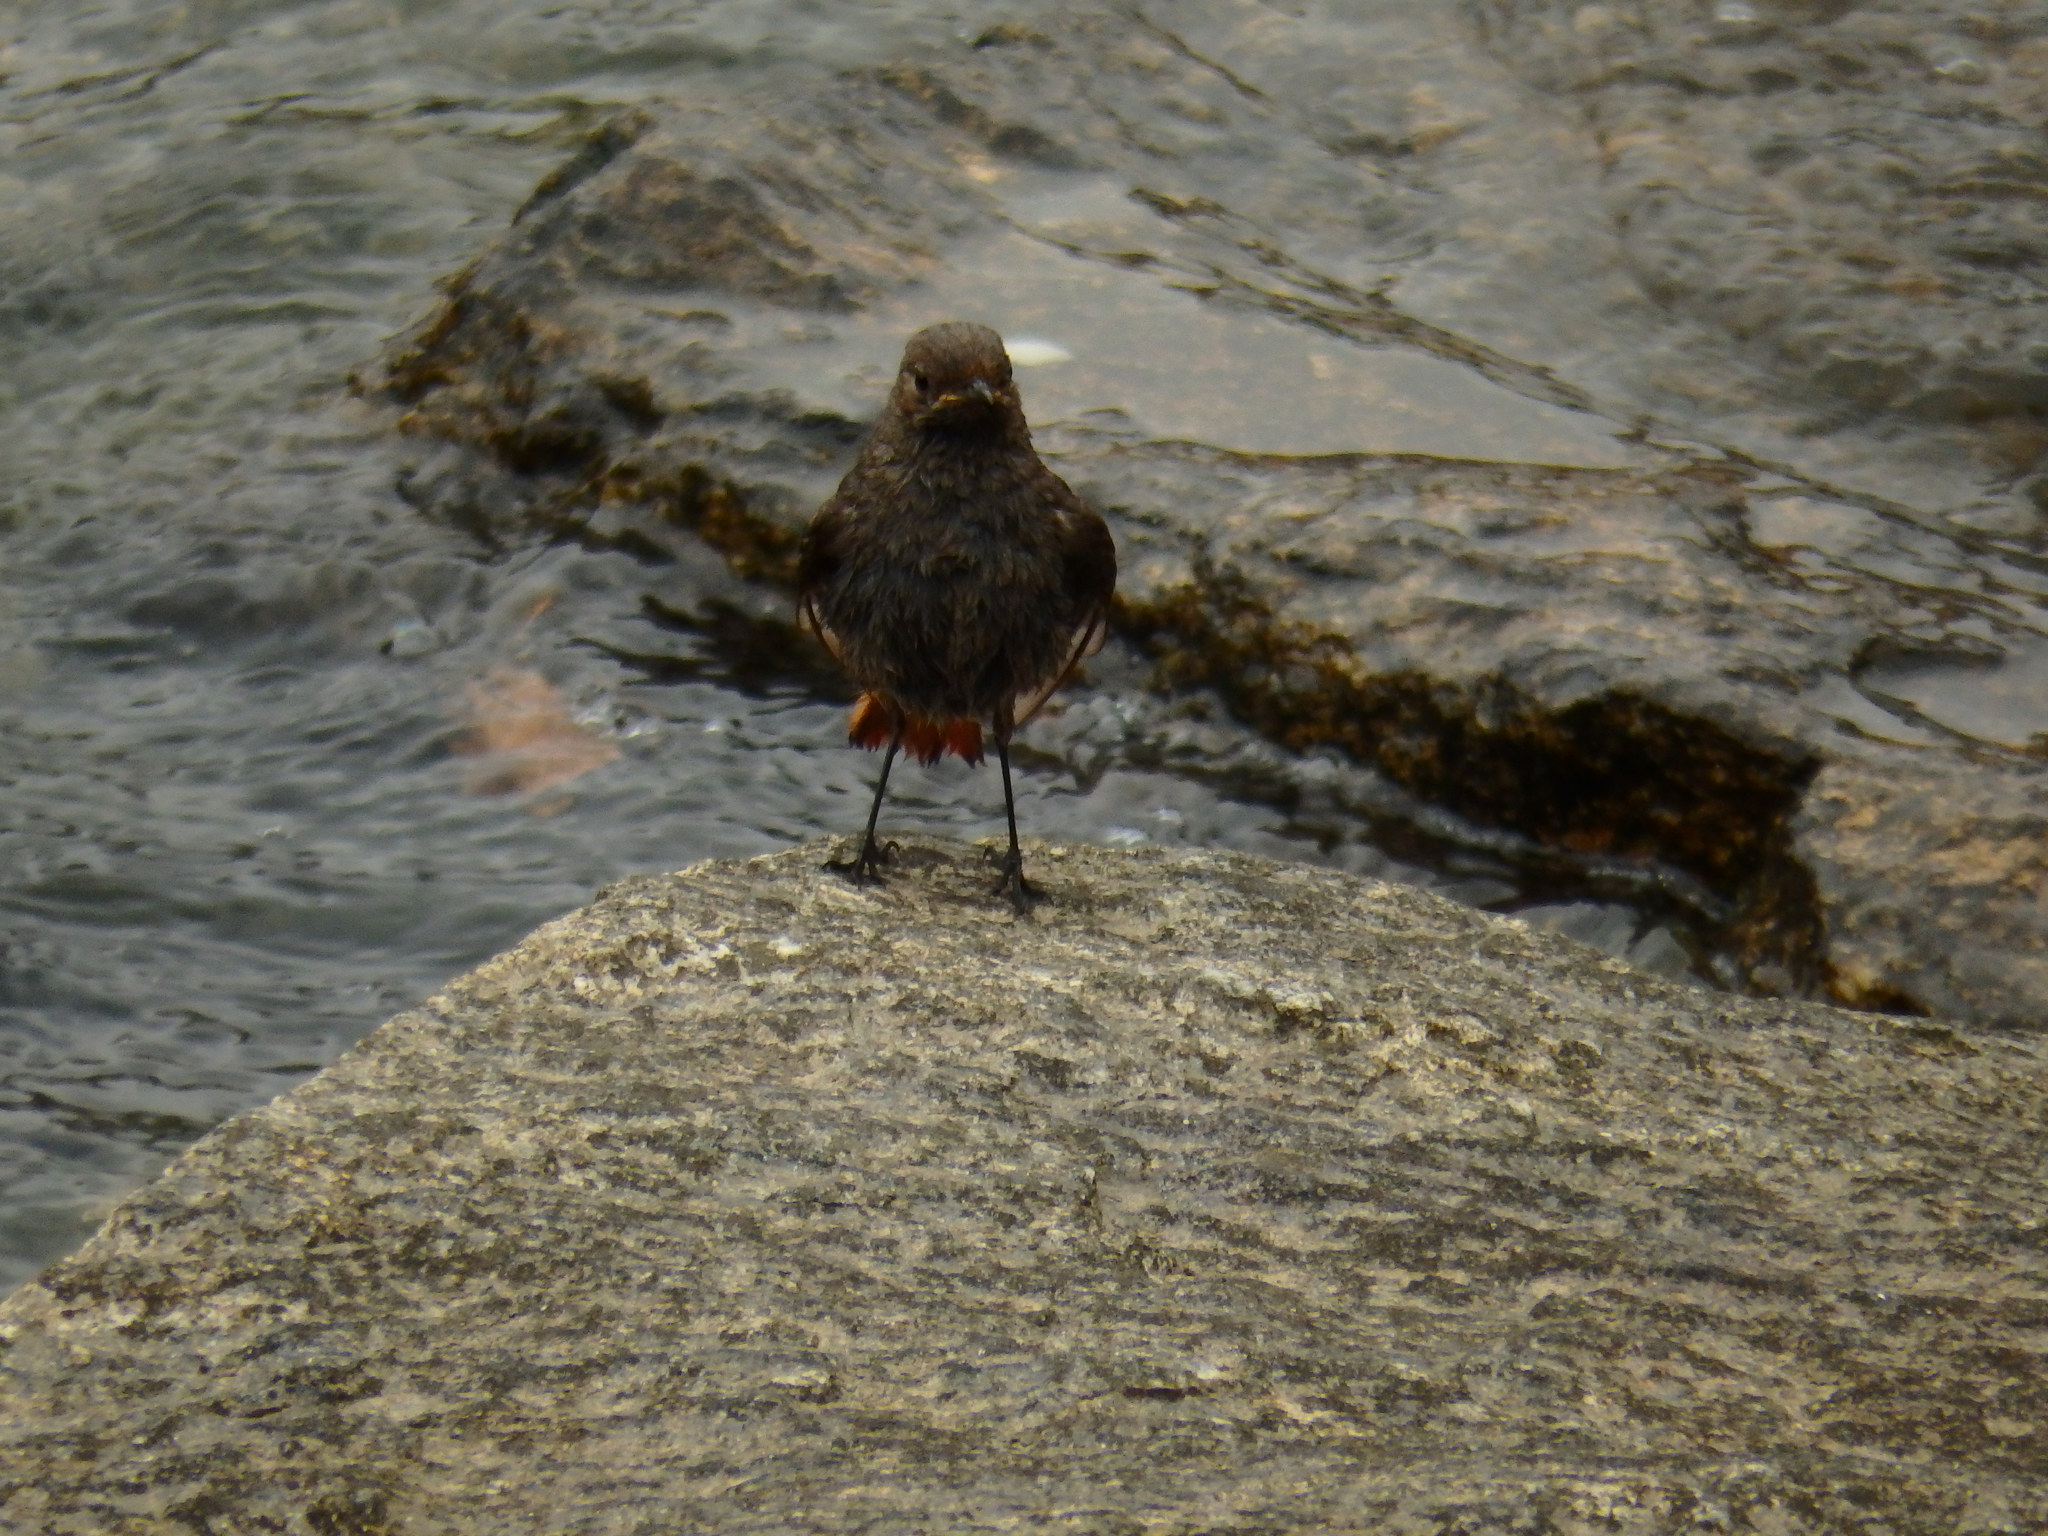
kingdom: Animalia
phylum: Chordata
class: Aves
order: Passeriformes
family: Muscicapidae
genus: Phoenicurus
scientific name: Phoenicurus ochruros
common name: Black redstart
